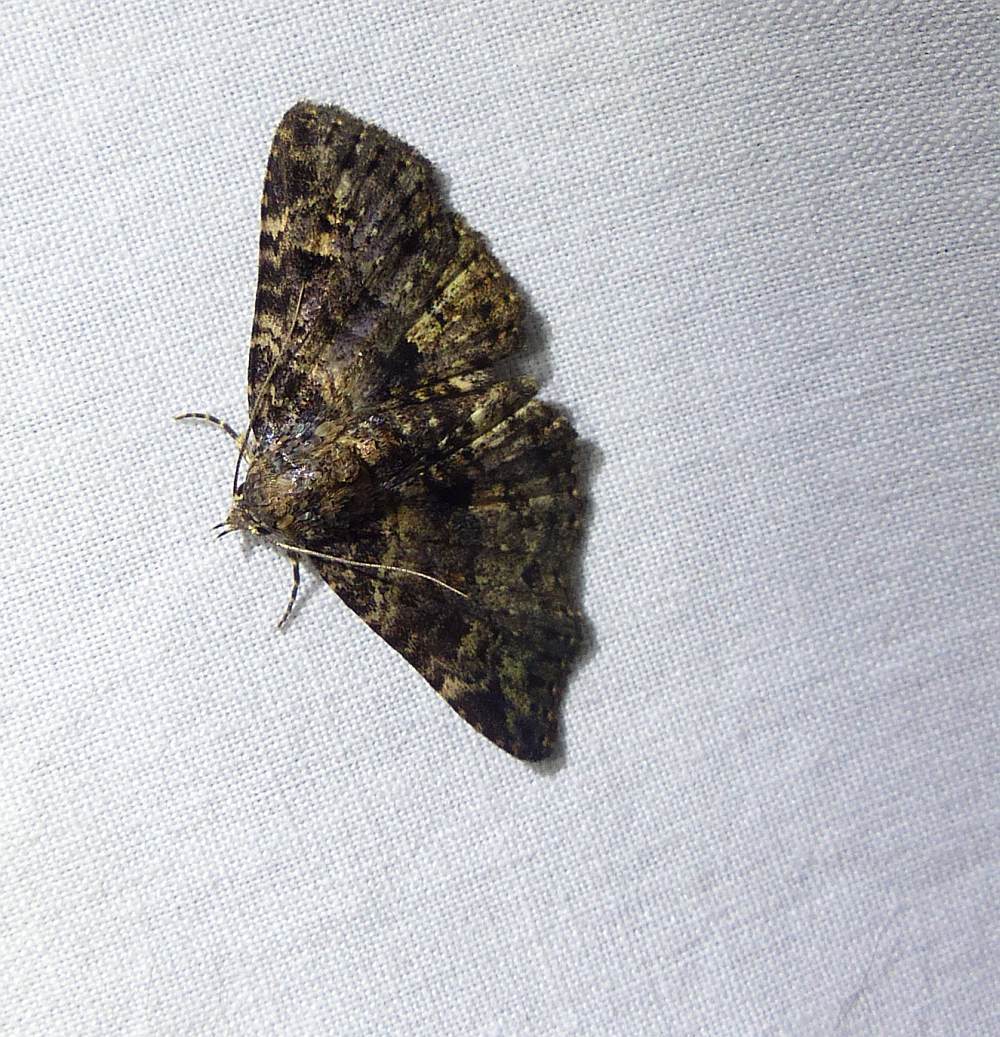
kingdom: Animalia
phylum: Arthropoda
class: Insecta
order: Lepidoptera
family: Erebidae
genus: Metalectra
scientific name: Metalectra discalis
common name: Common fungus moth
